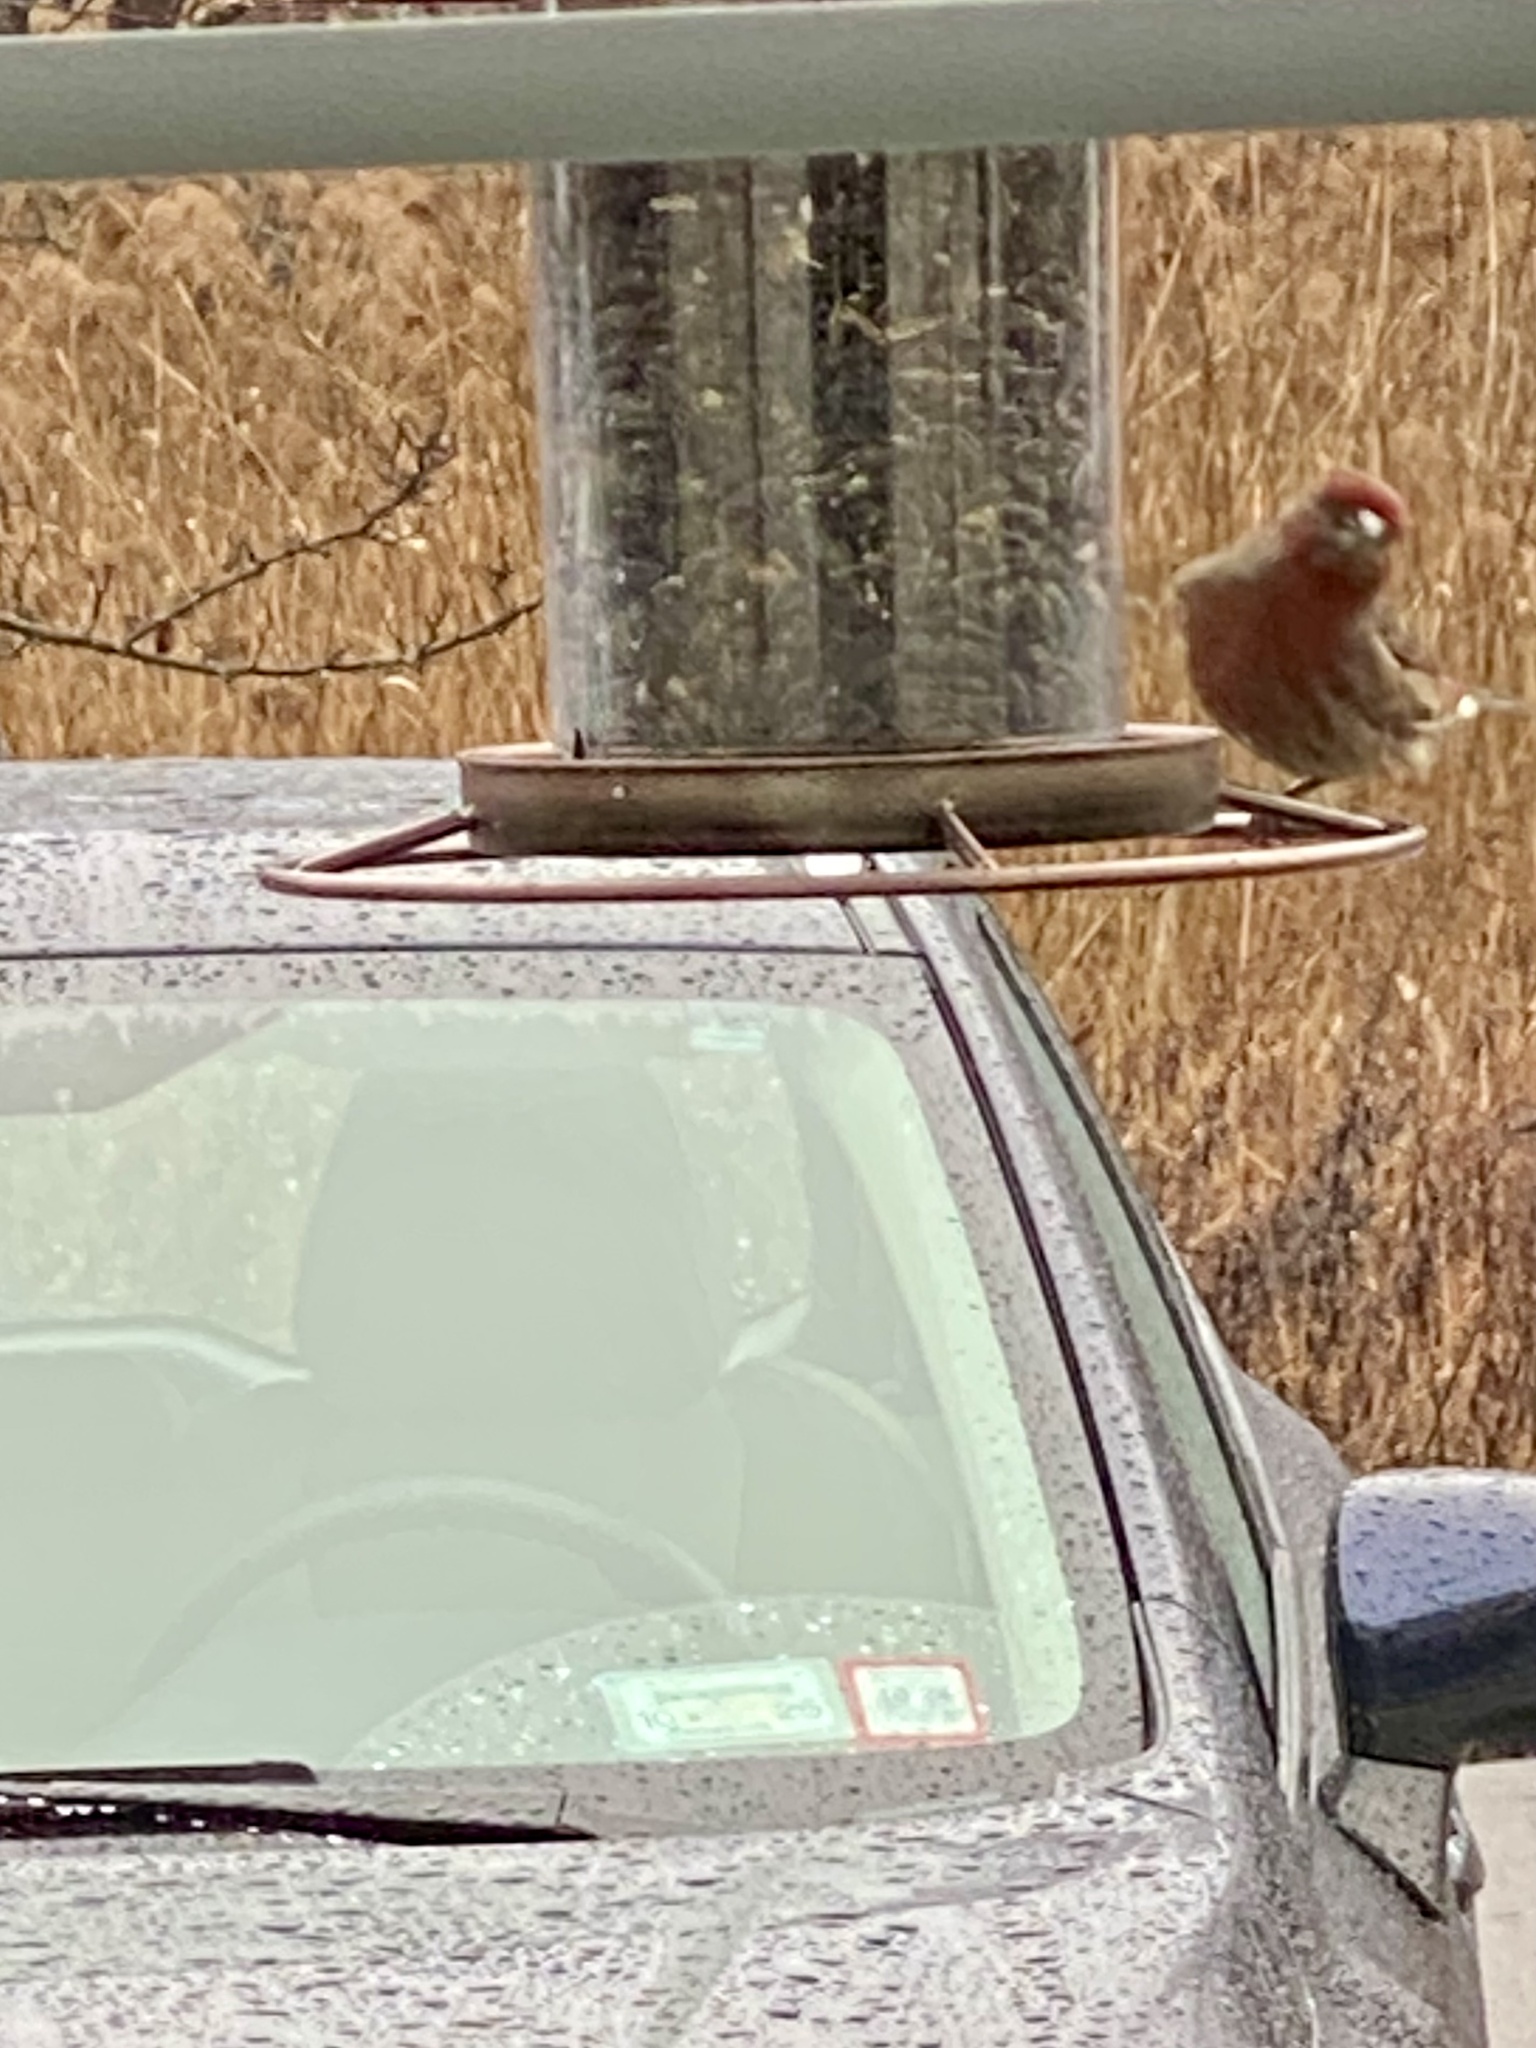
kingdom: Animalia
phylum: Chordata
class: Aves
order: Passeriformes
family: Fringillidae
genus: Haemorhous
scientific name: Haemorhous mexicanus
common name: House finch
